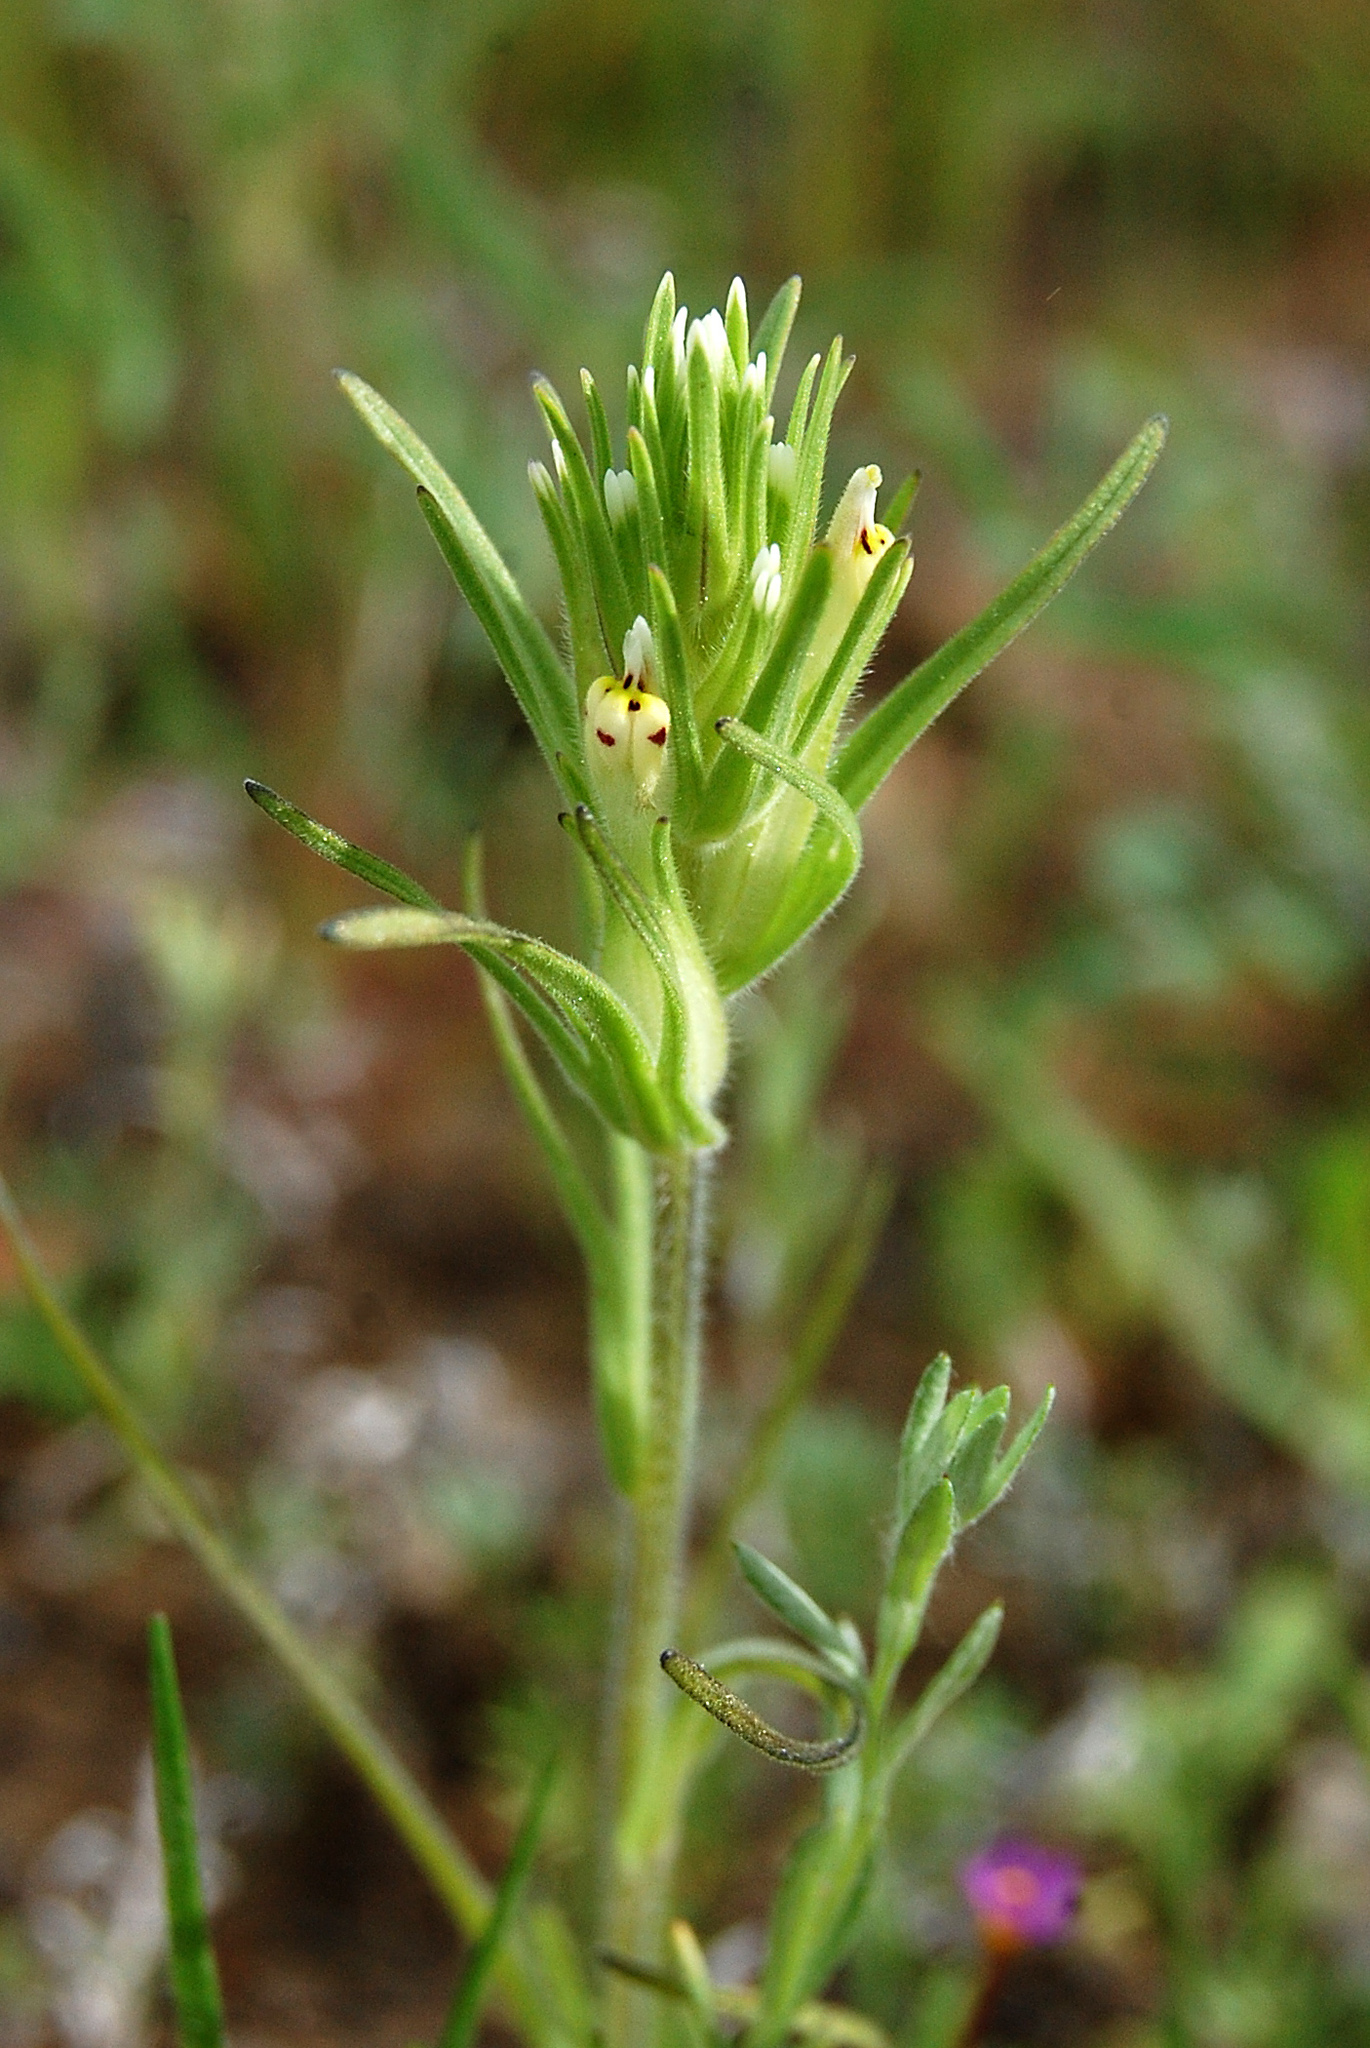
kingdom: Plantae
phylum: Tracheophyta
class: Magnoliopsida
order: Lamiales
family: Orobanchaceae
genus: Castilleja
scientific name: Castilleja attenuata
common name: Valley tassels
